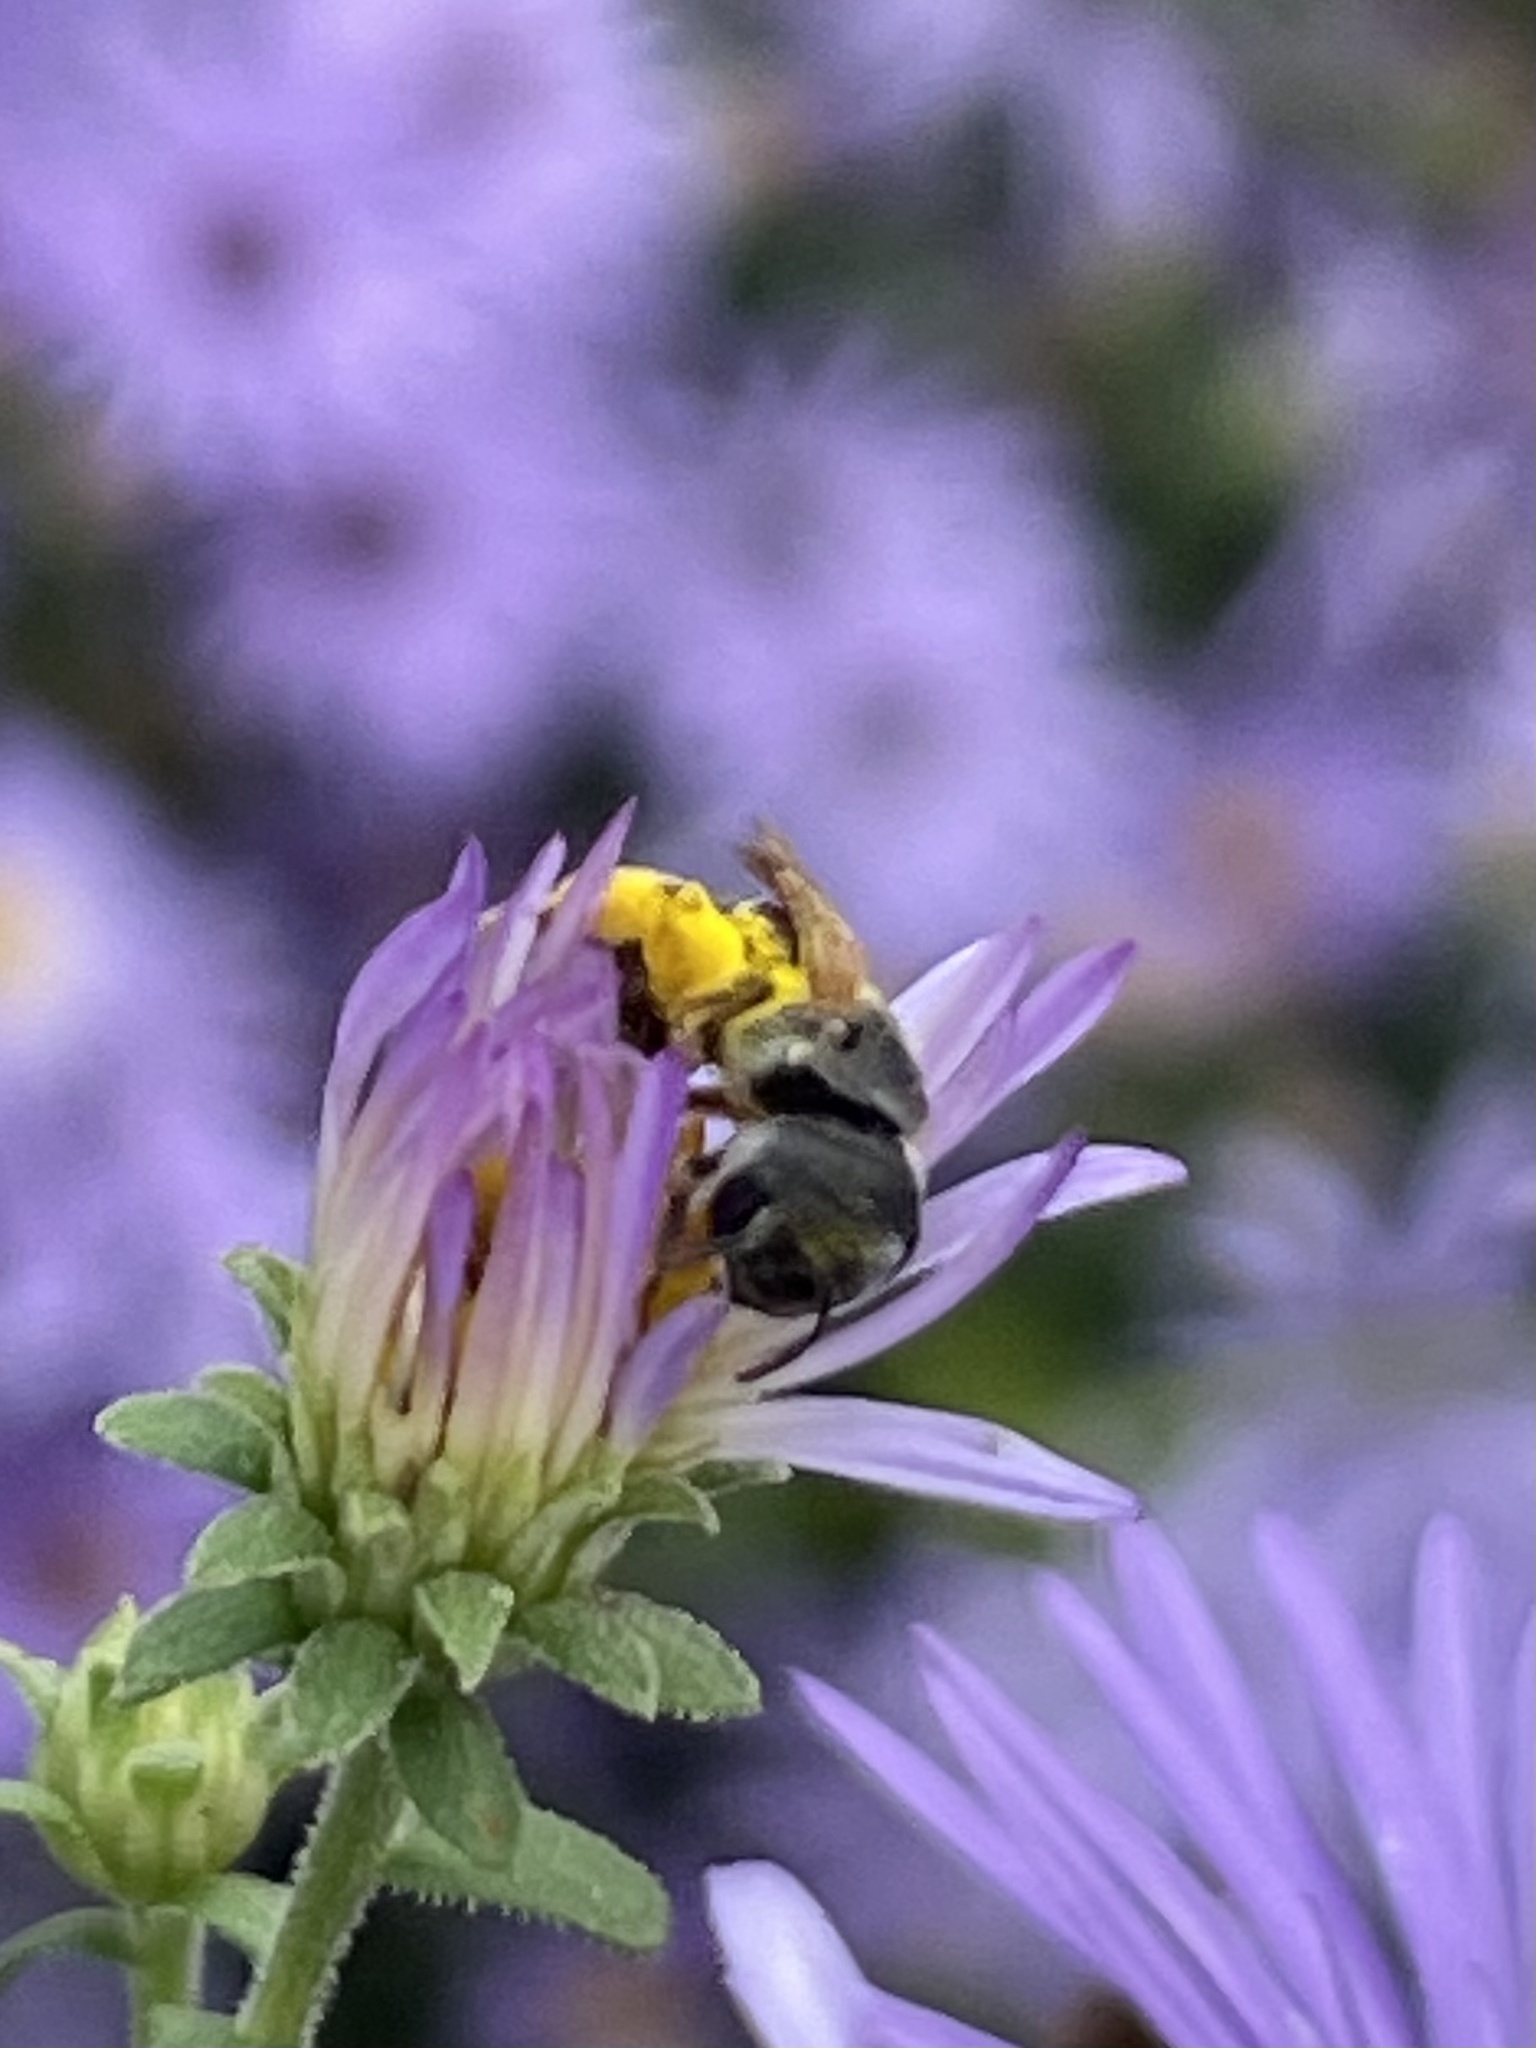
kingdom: Animalia
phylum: Arthropoda
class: Insecta
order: Hymenoptera
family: Halictidae
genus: Halictus
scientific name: Halictus ligatus
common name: Ligated furrow bee
